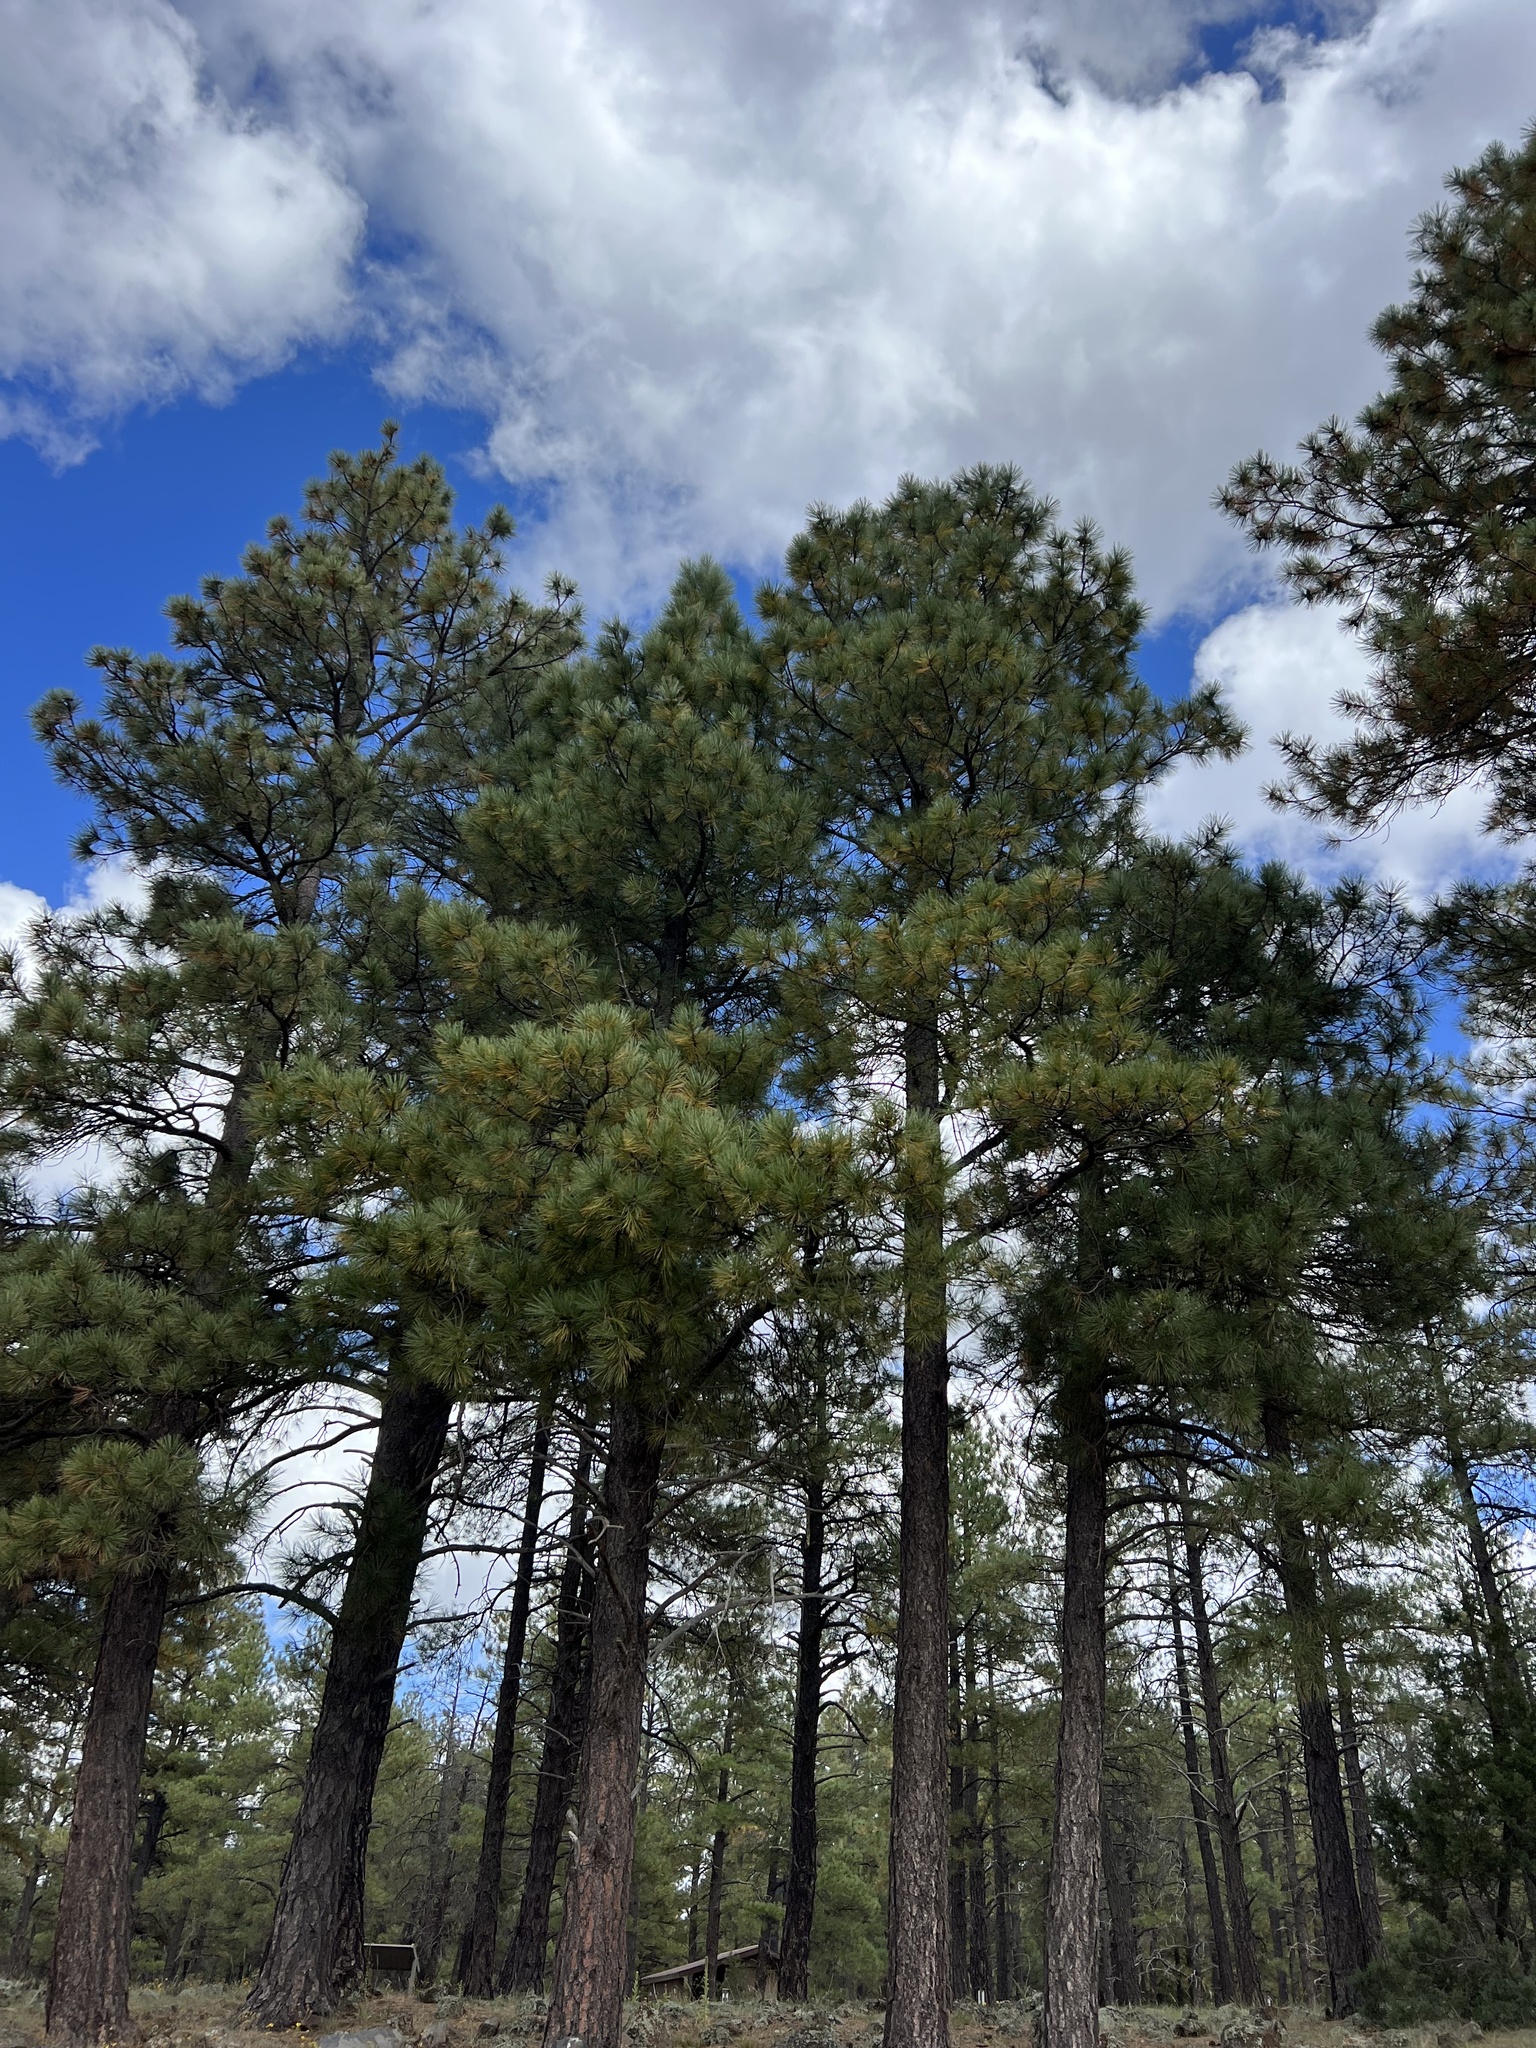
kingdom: Plantae
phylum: Tracheophyta
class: Pinopsida
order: Pinales
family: Pinaceae
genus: Pinus
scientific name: Pinus ponderosa
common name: Western yellow-pine
